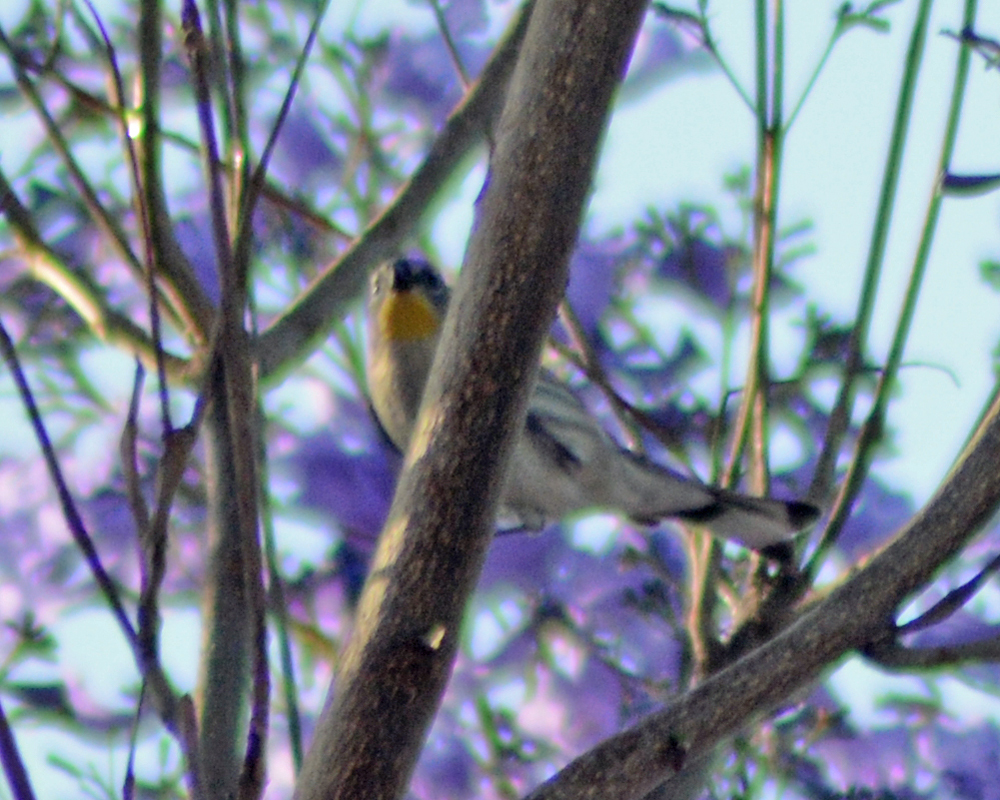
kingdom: Animalia
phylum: Chordata
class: Aves
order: Passeriformes
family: Parulidae
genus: Setophaga
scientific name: Setophaga coronata
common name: Myrtle warbler
